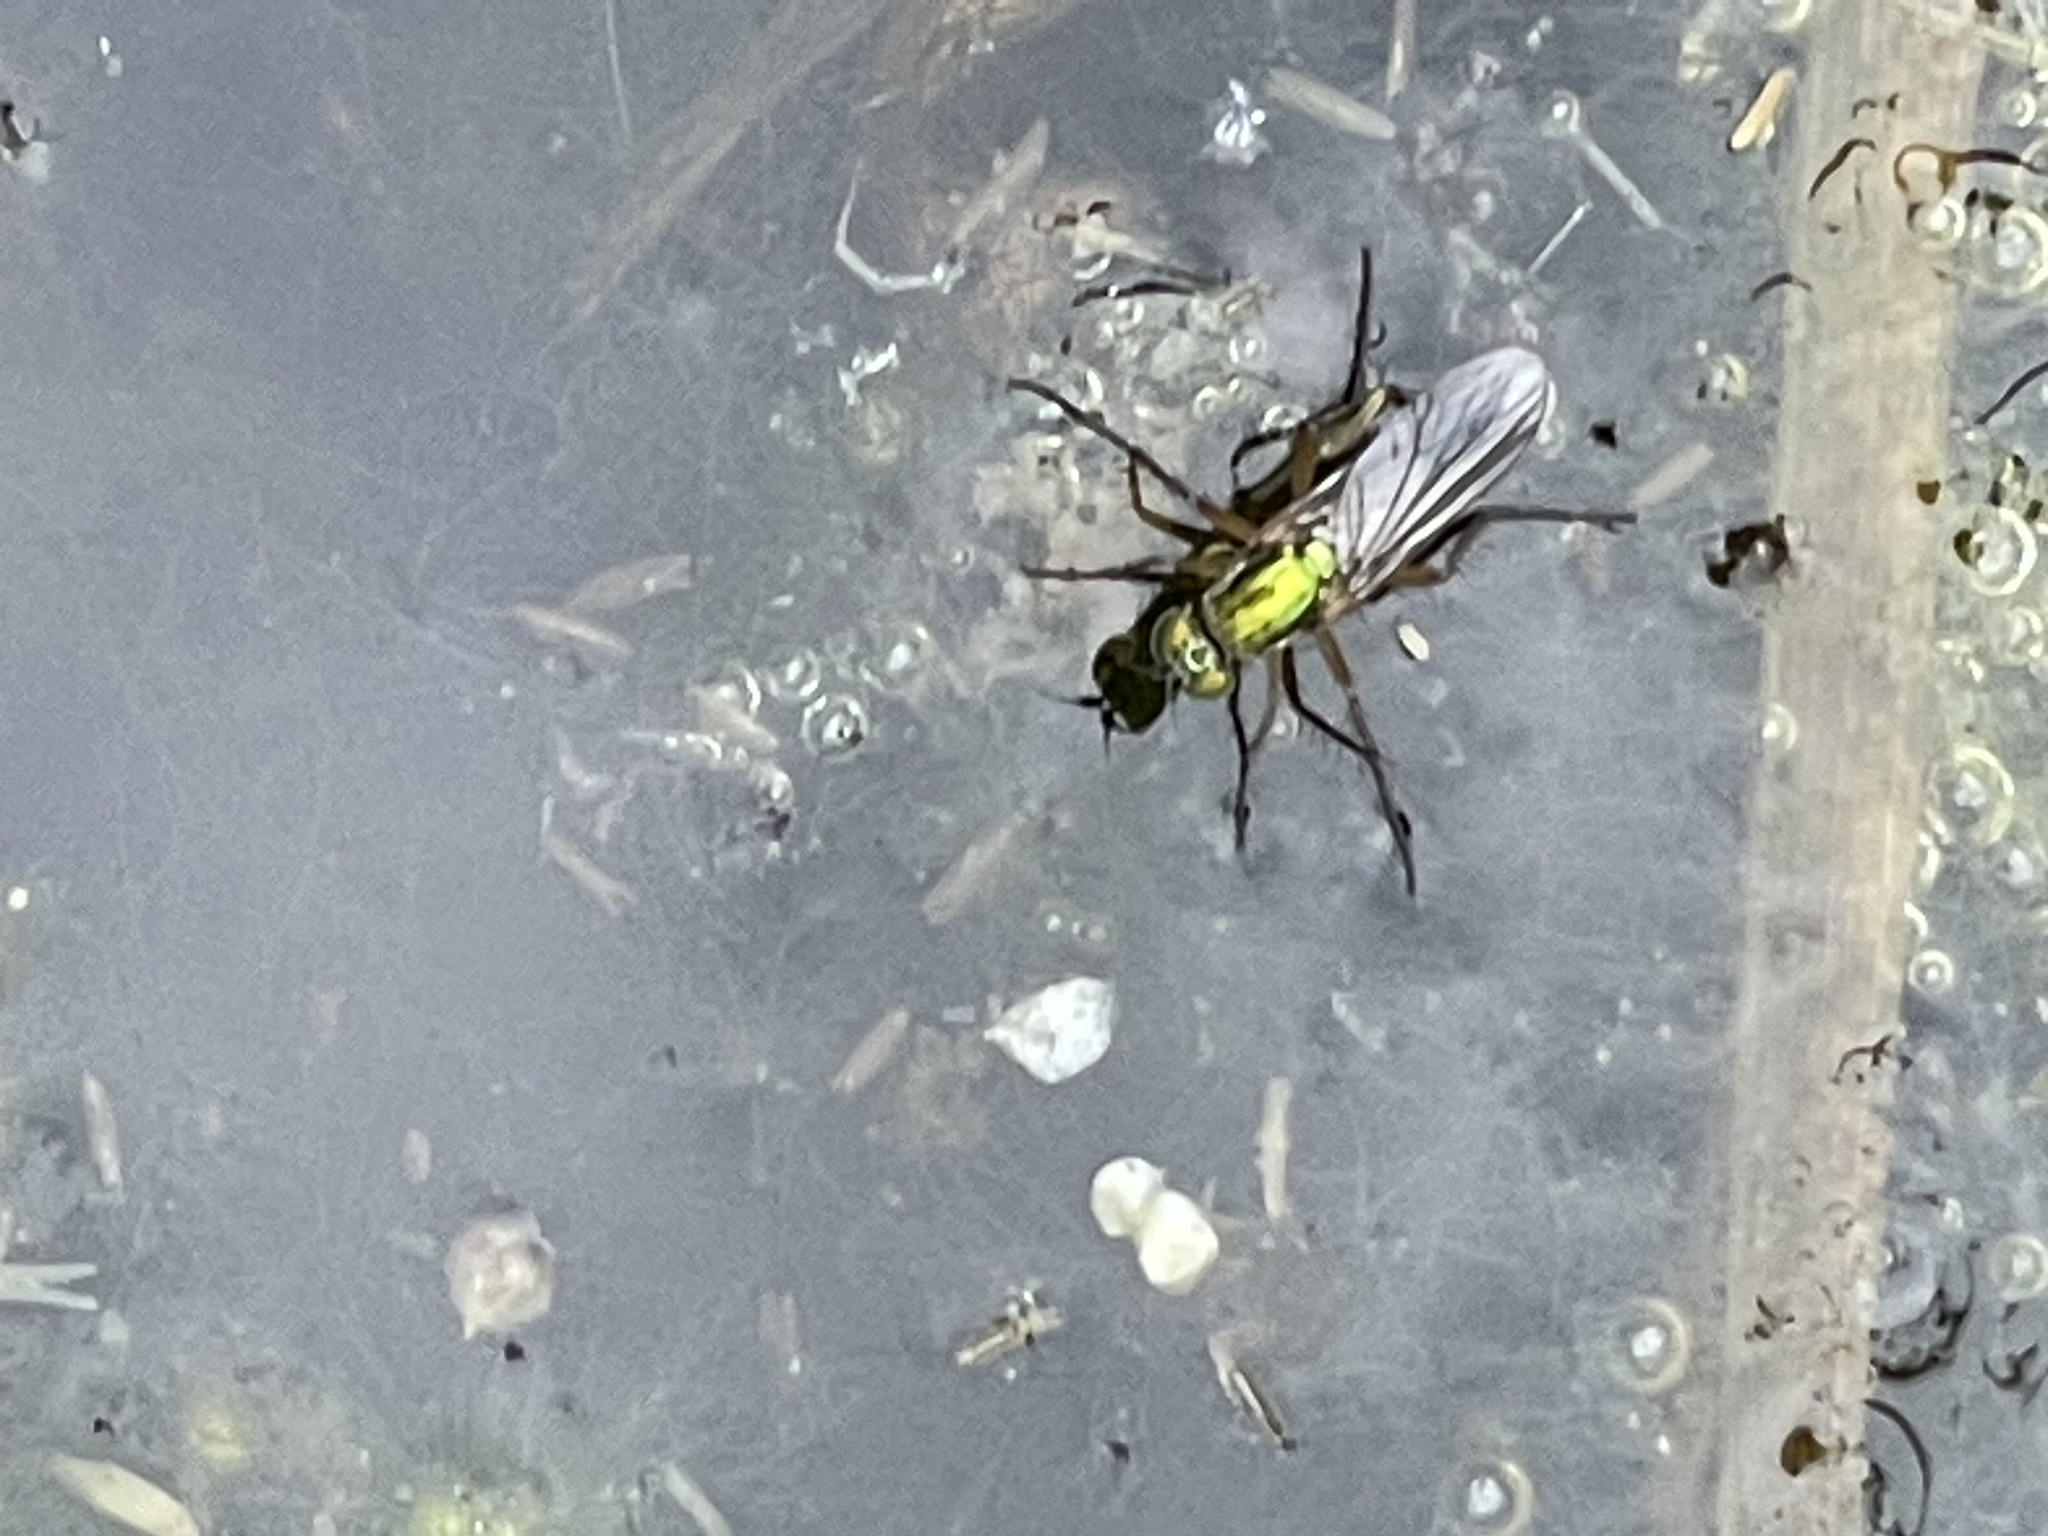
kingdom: Animalia
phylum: Arthropoda
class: Insecta
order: Diptera
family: Dolichopodidae
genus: Poecilobothrus
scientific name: Poecilobothrus nobilitatus
